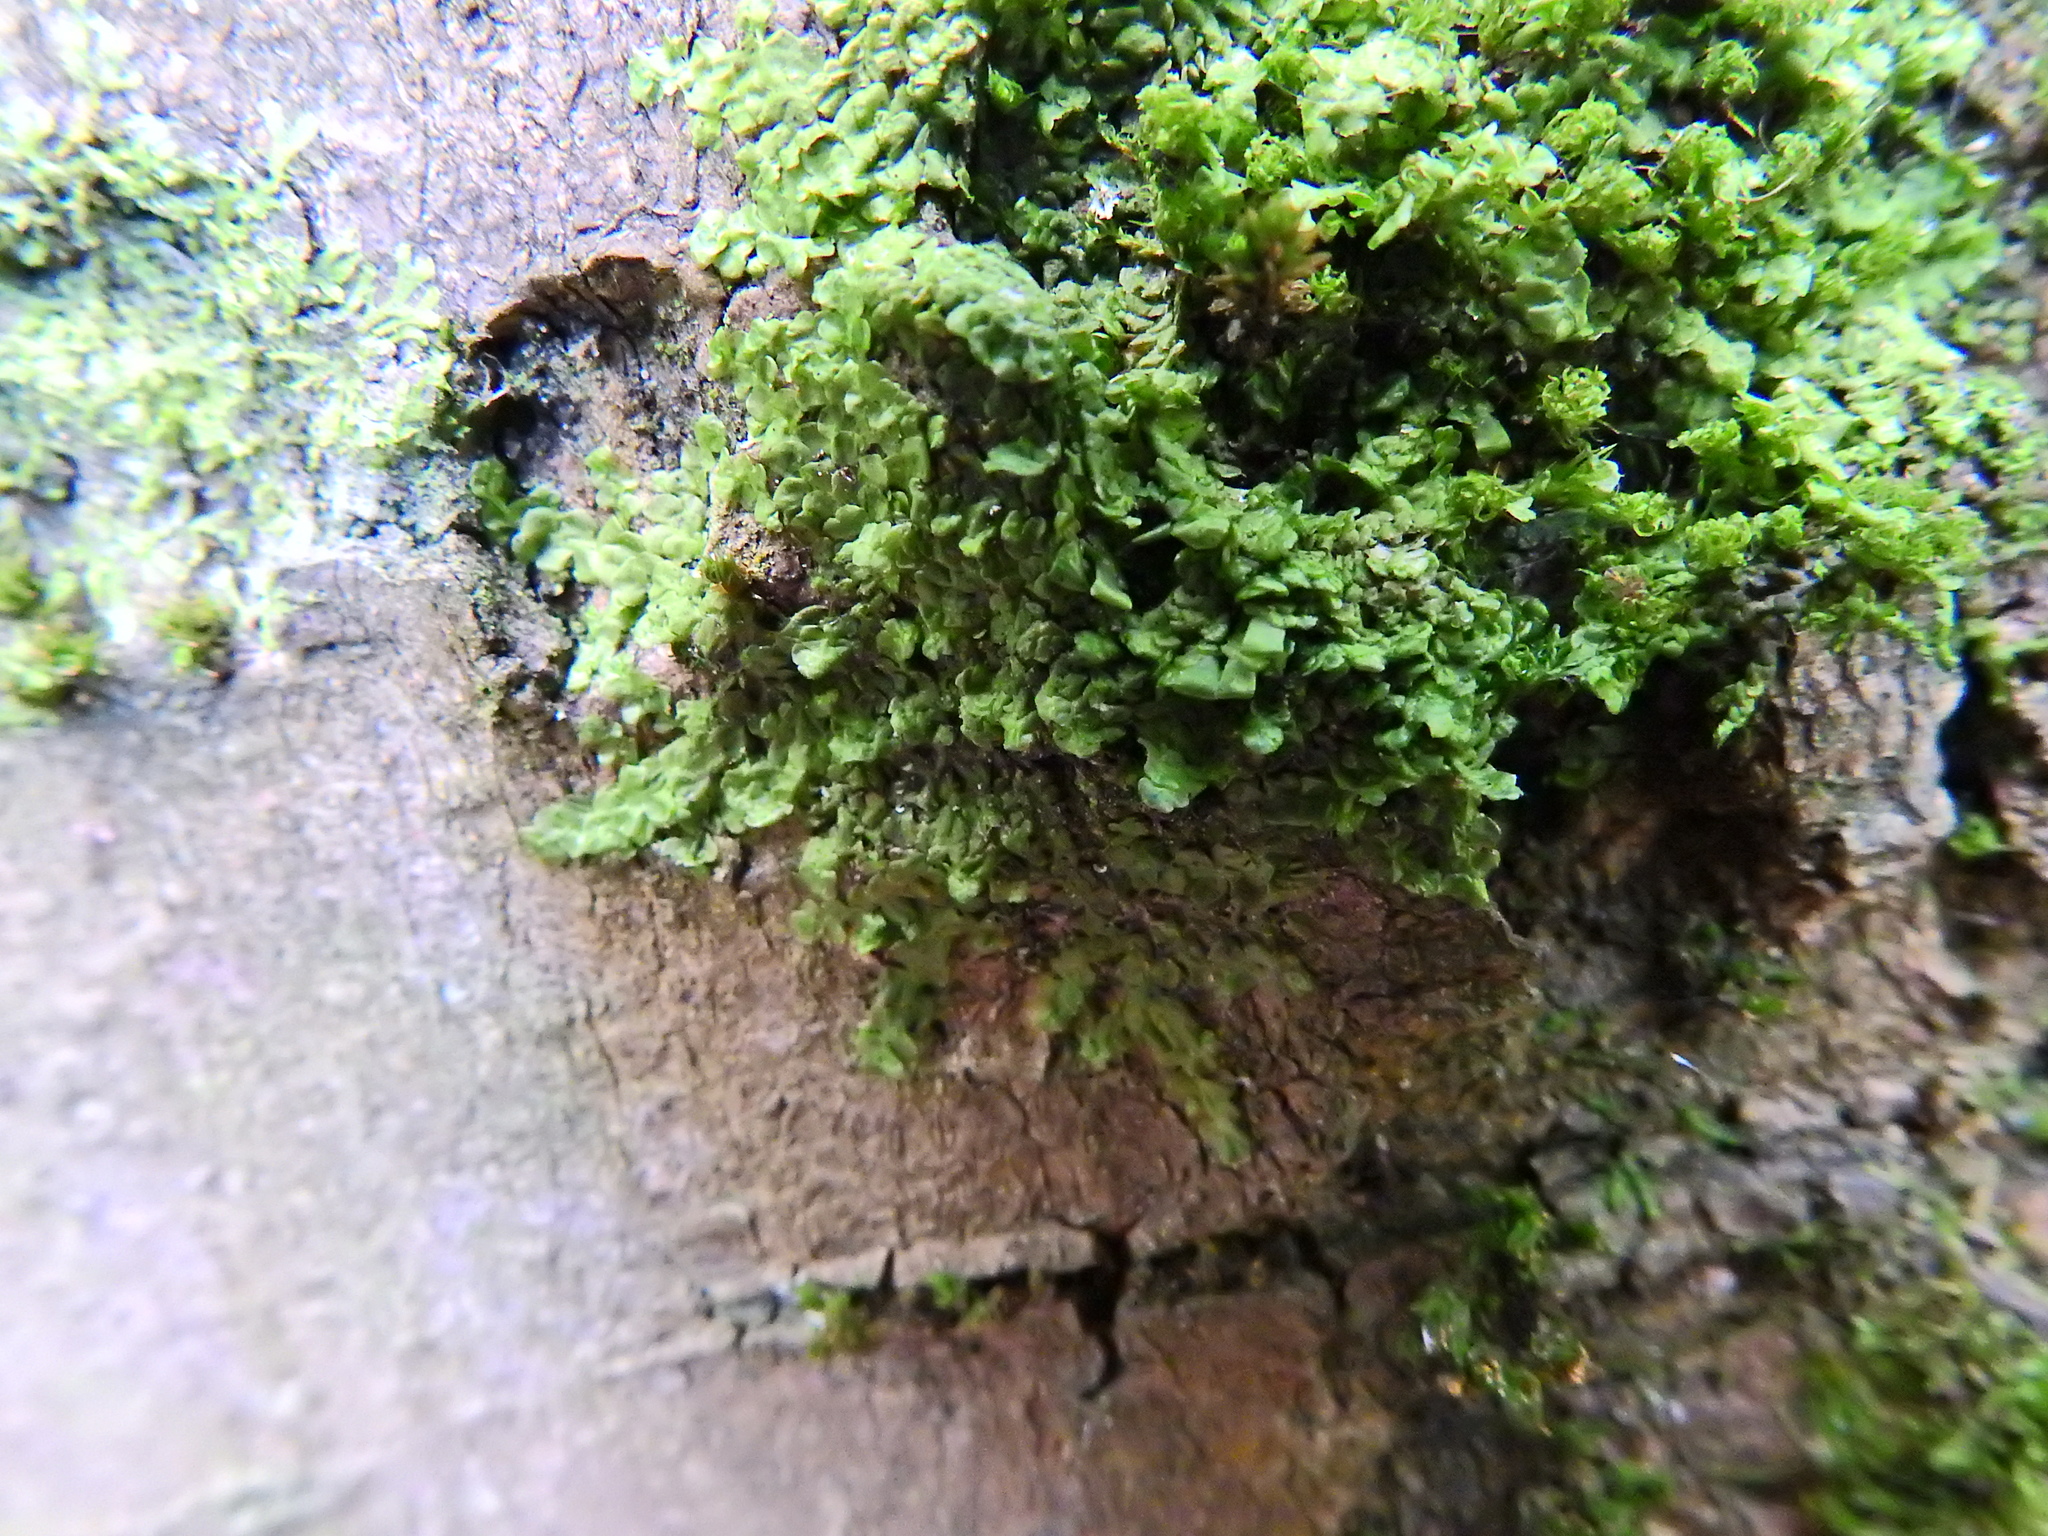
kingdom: Plantae
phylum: Marchantiophyta
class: Jungermanniopsida
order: Porellales
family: Radulaceae
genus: Radula
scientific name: Radula complanata
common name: Flat-leaved scalewort
